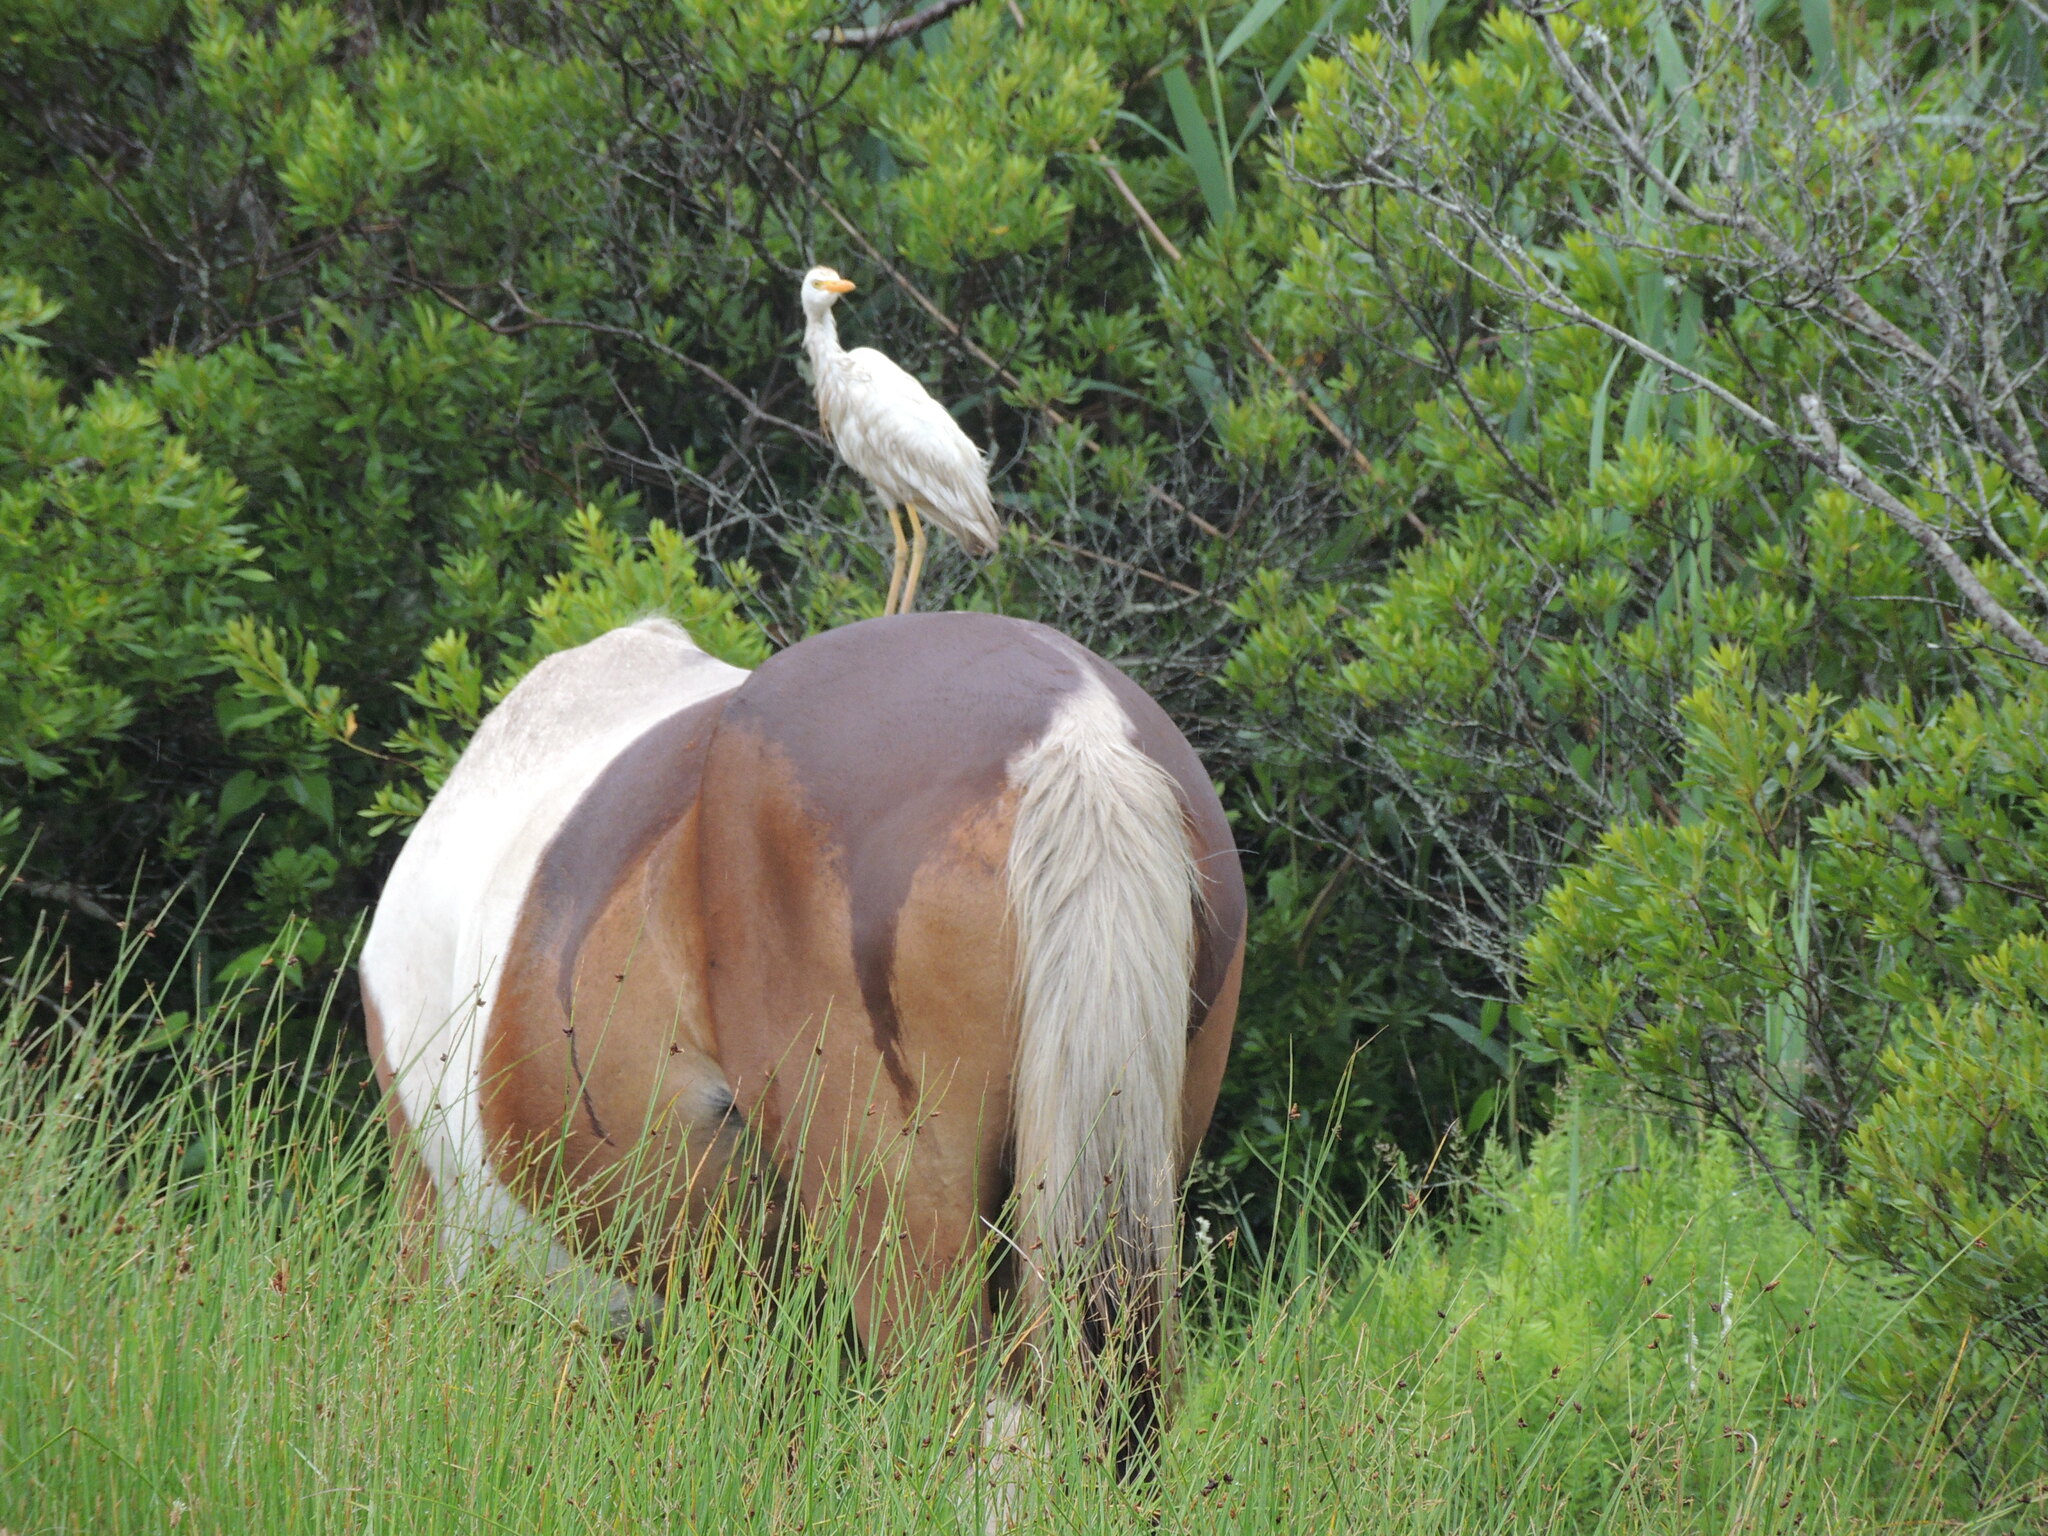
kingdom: Animalia
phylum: Chordata
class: Aves
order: Pelecaniformes
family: Ardeidae
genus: Bubulcus
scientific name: Bubulcus ibis
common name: Cattle egret
